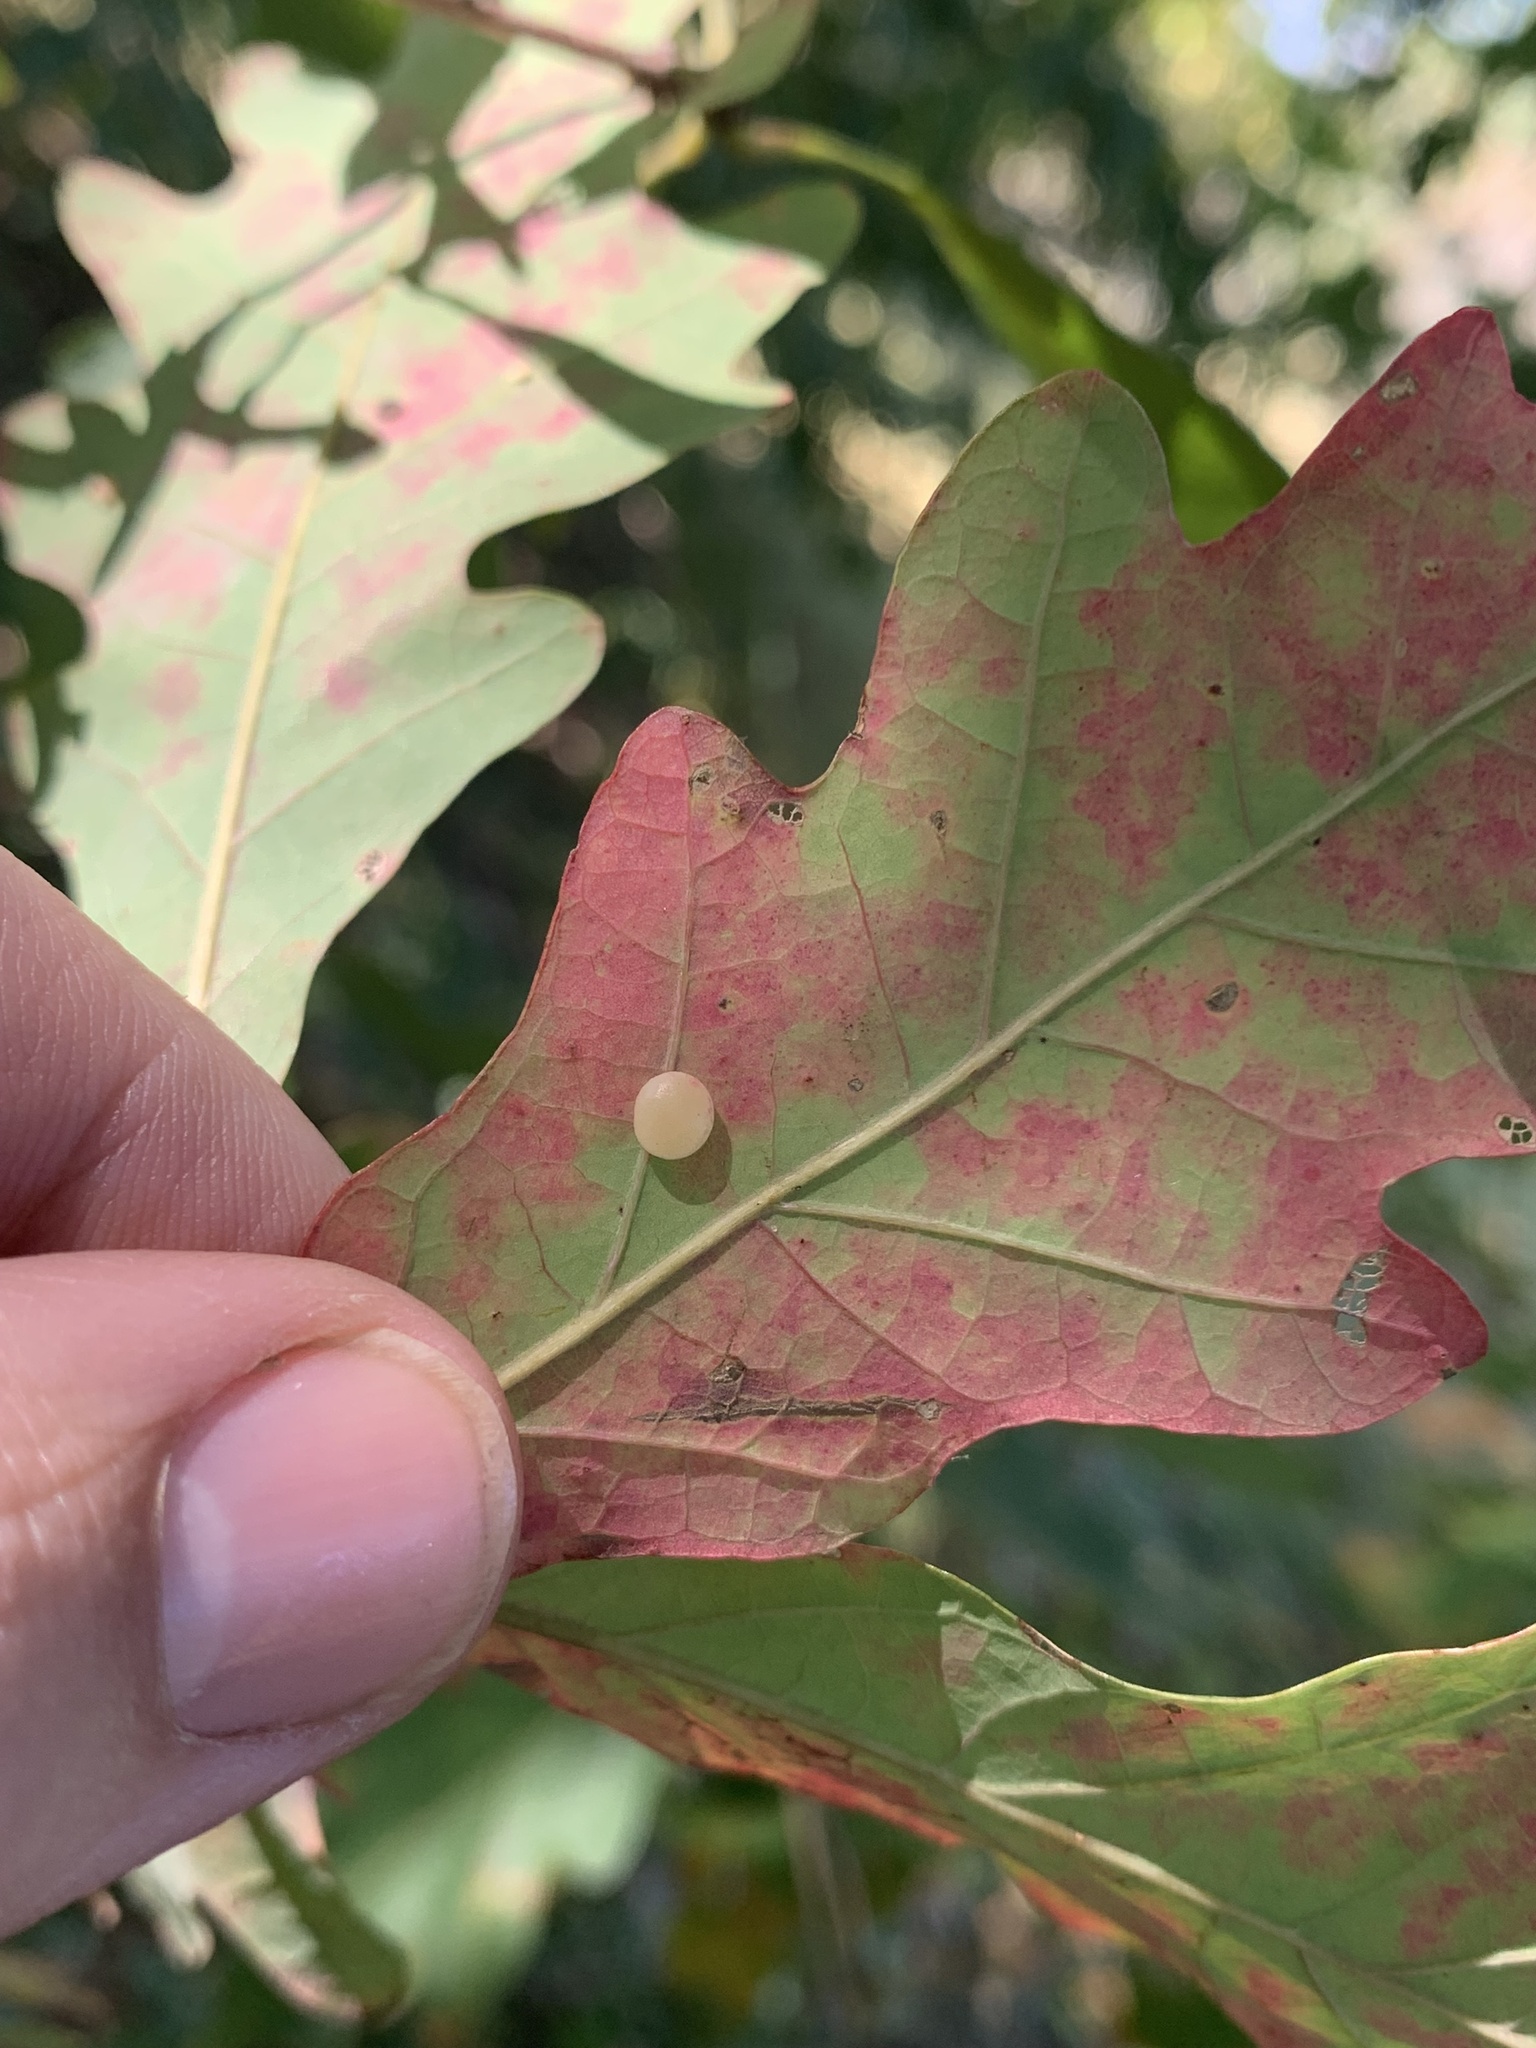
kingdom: Animalia
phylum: Arthropoda
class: Insecta
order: Hymenoptera
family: Cynipidae
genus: Phylloteras
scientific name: Phylloteras
